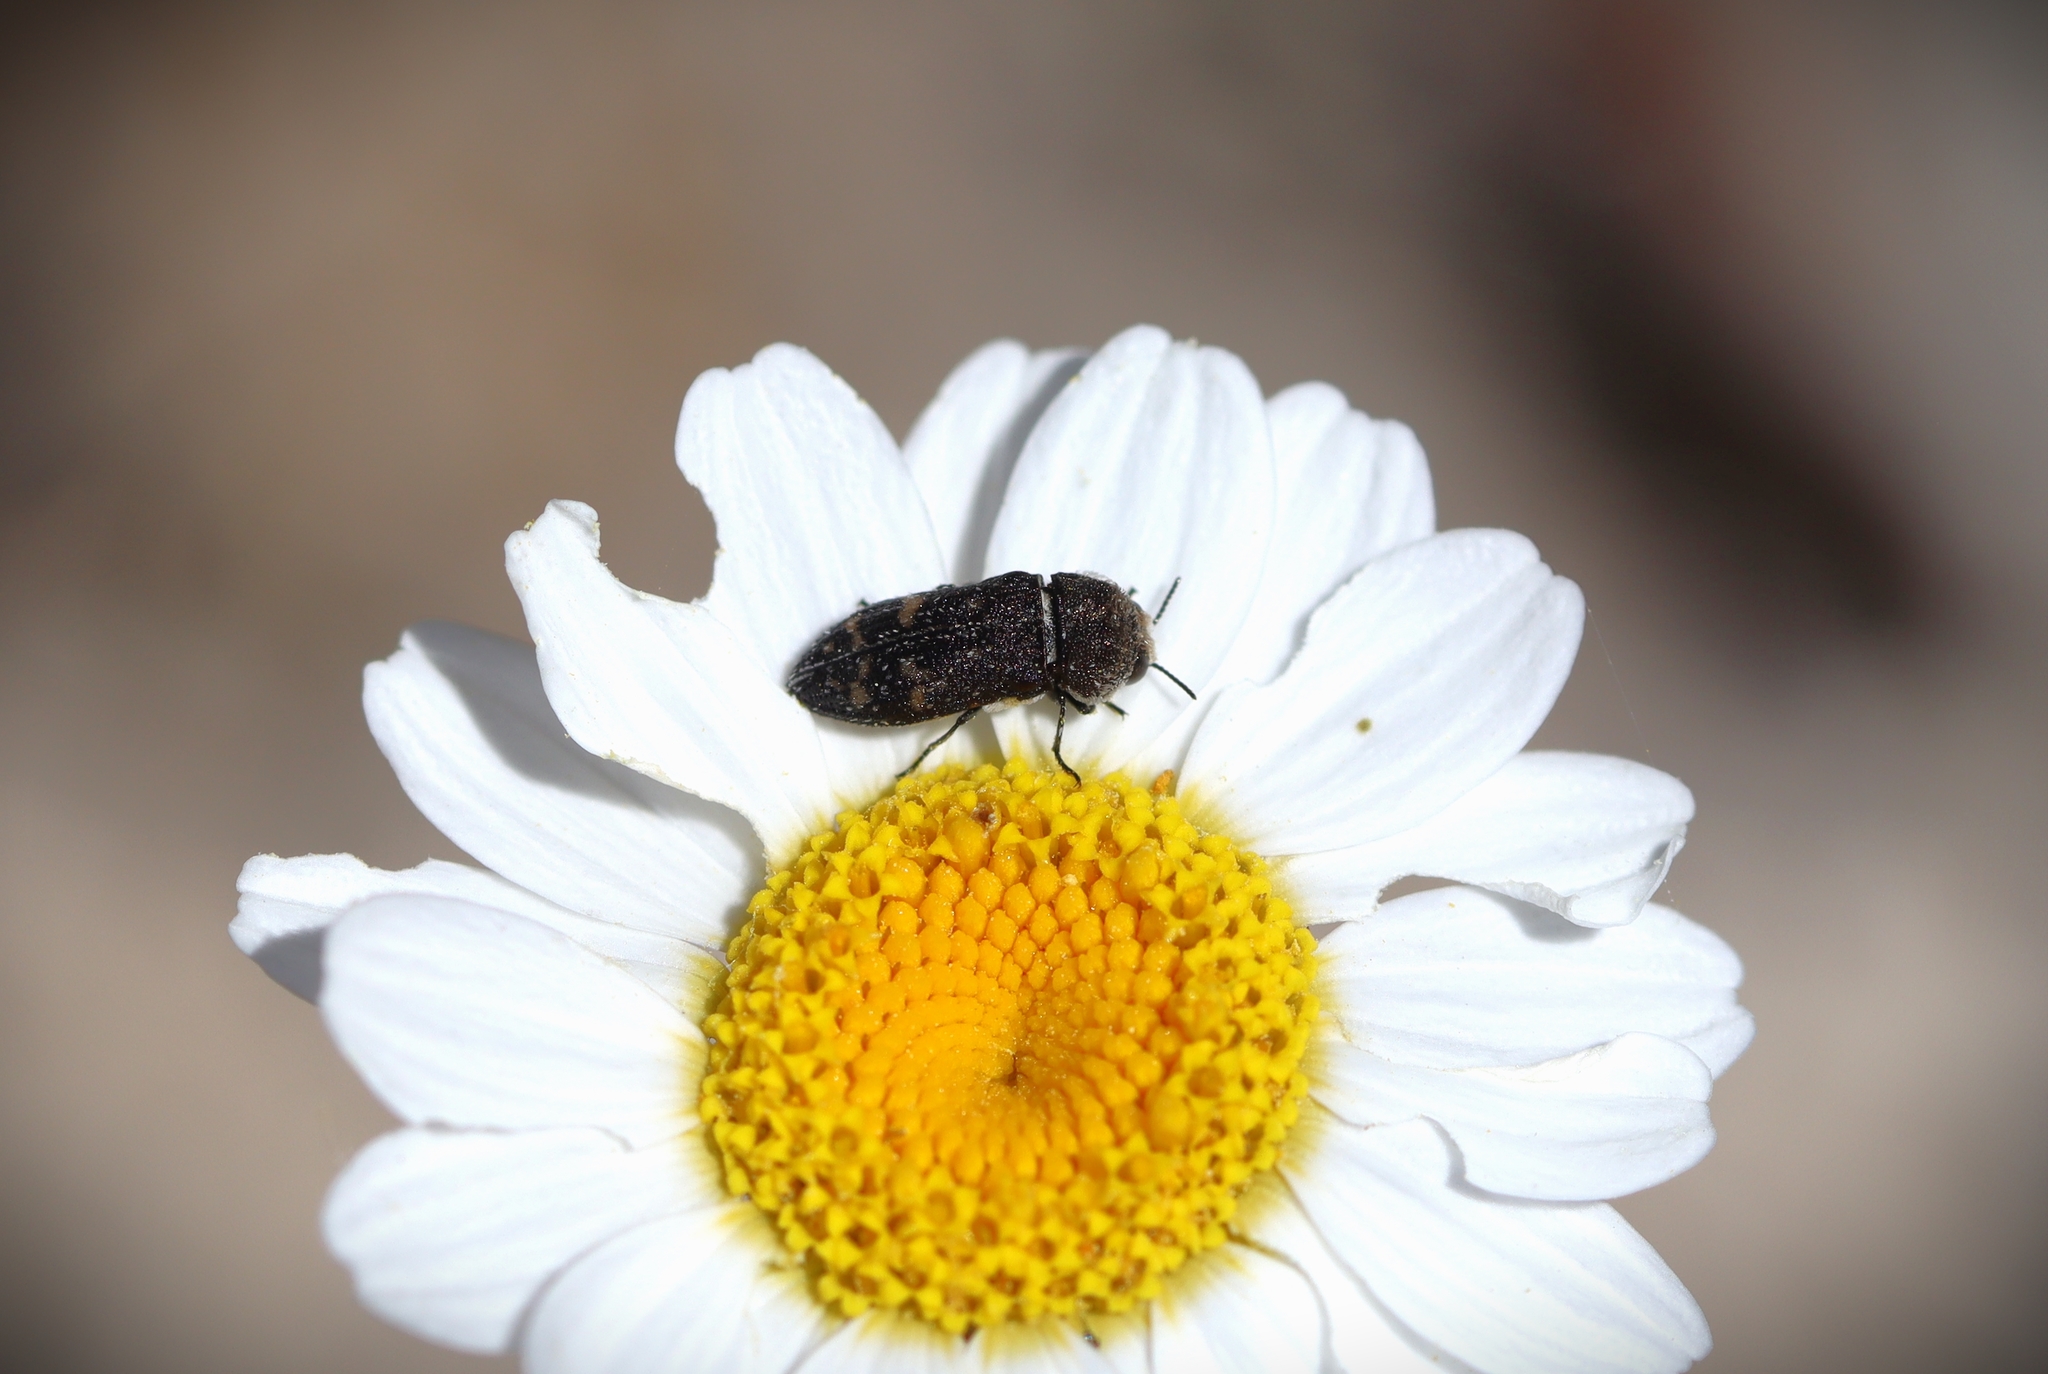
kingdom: Animalia
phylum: Arthropoda
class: Insecta
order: Coleoptera
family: Buprestidae
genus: Acmaeoderella
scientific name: Acmaeoderella flavofasciata
